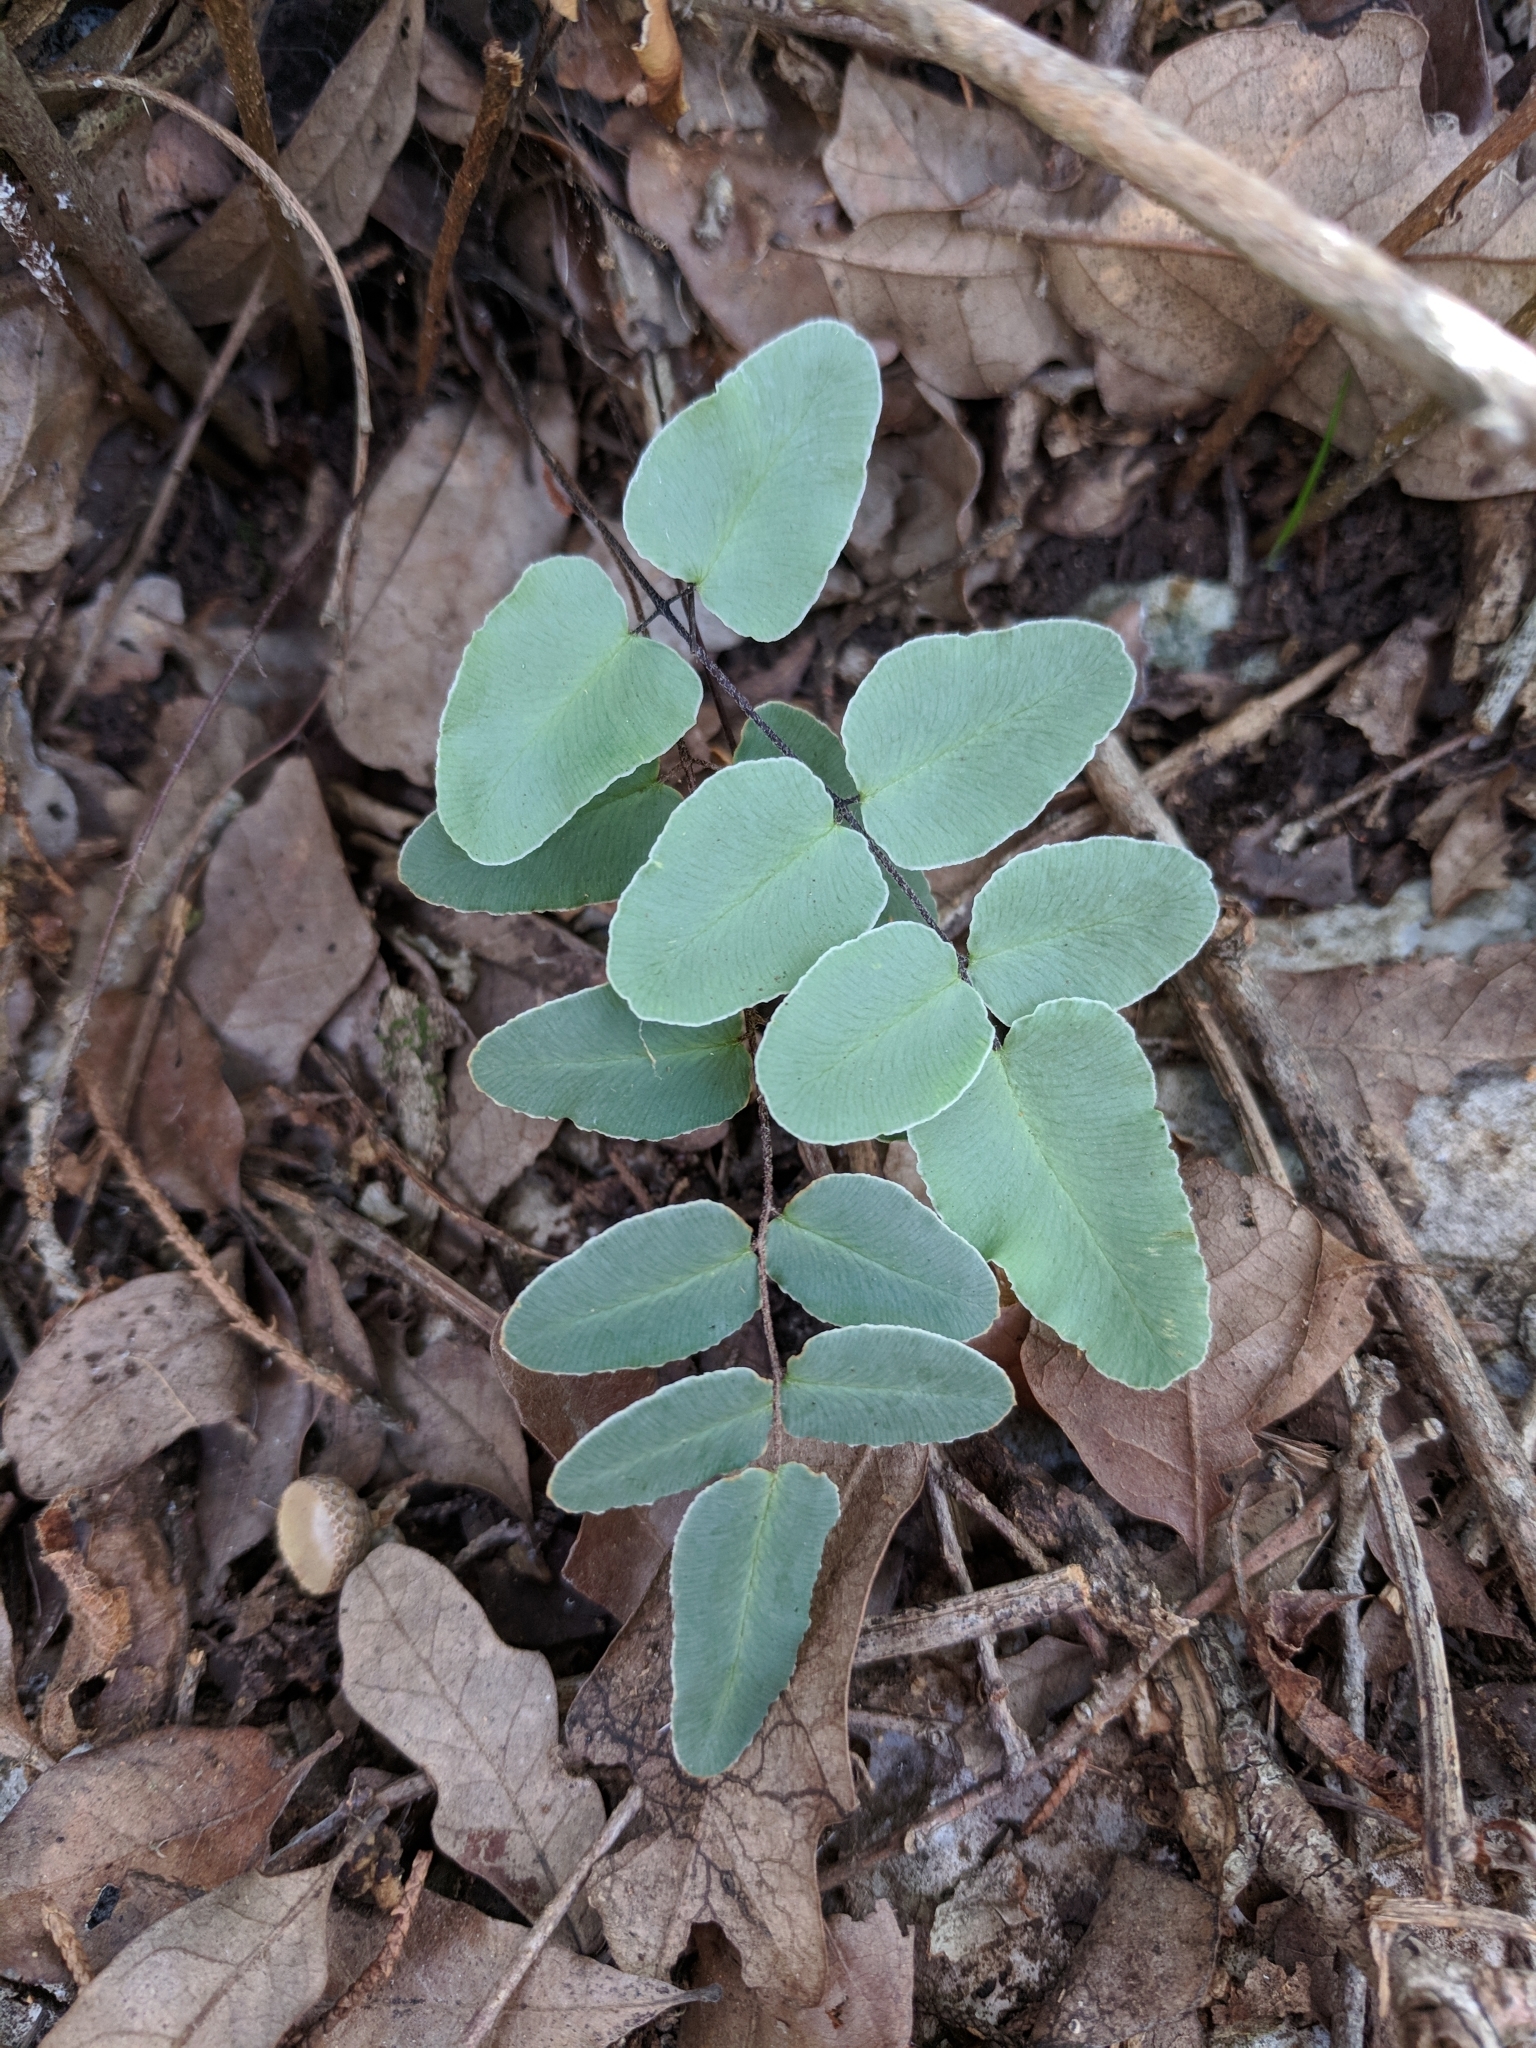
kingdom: Plantae
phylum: Tracheophyta
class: Polypodiopsida
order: Polypodiales
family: Pteridaceae
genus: Pellaea
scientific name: Pellaea atropurpurea
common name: Hairy cliffbrake
